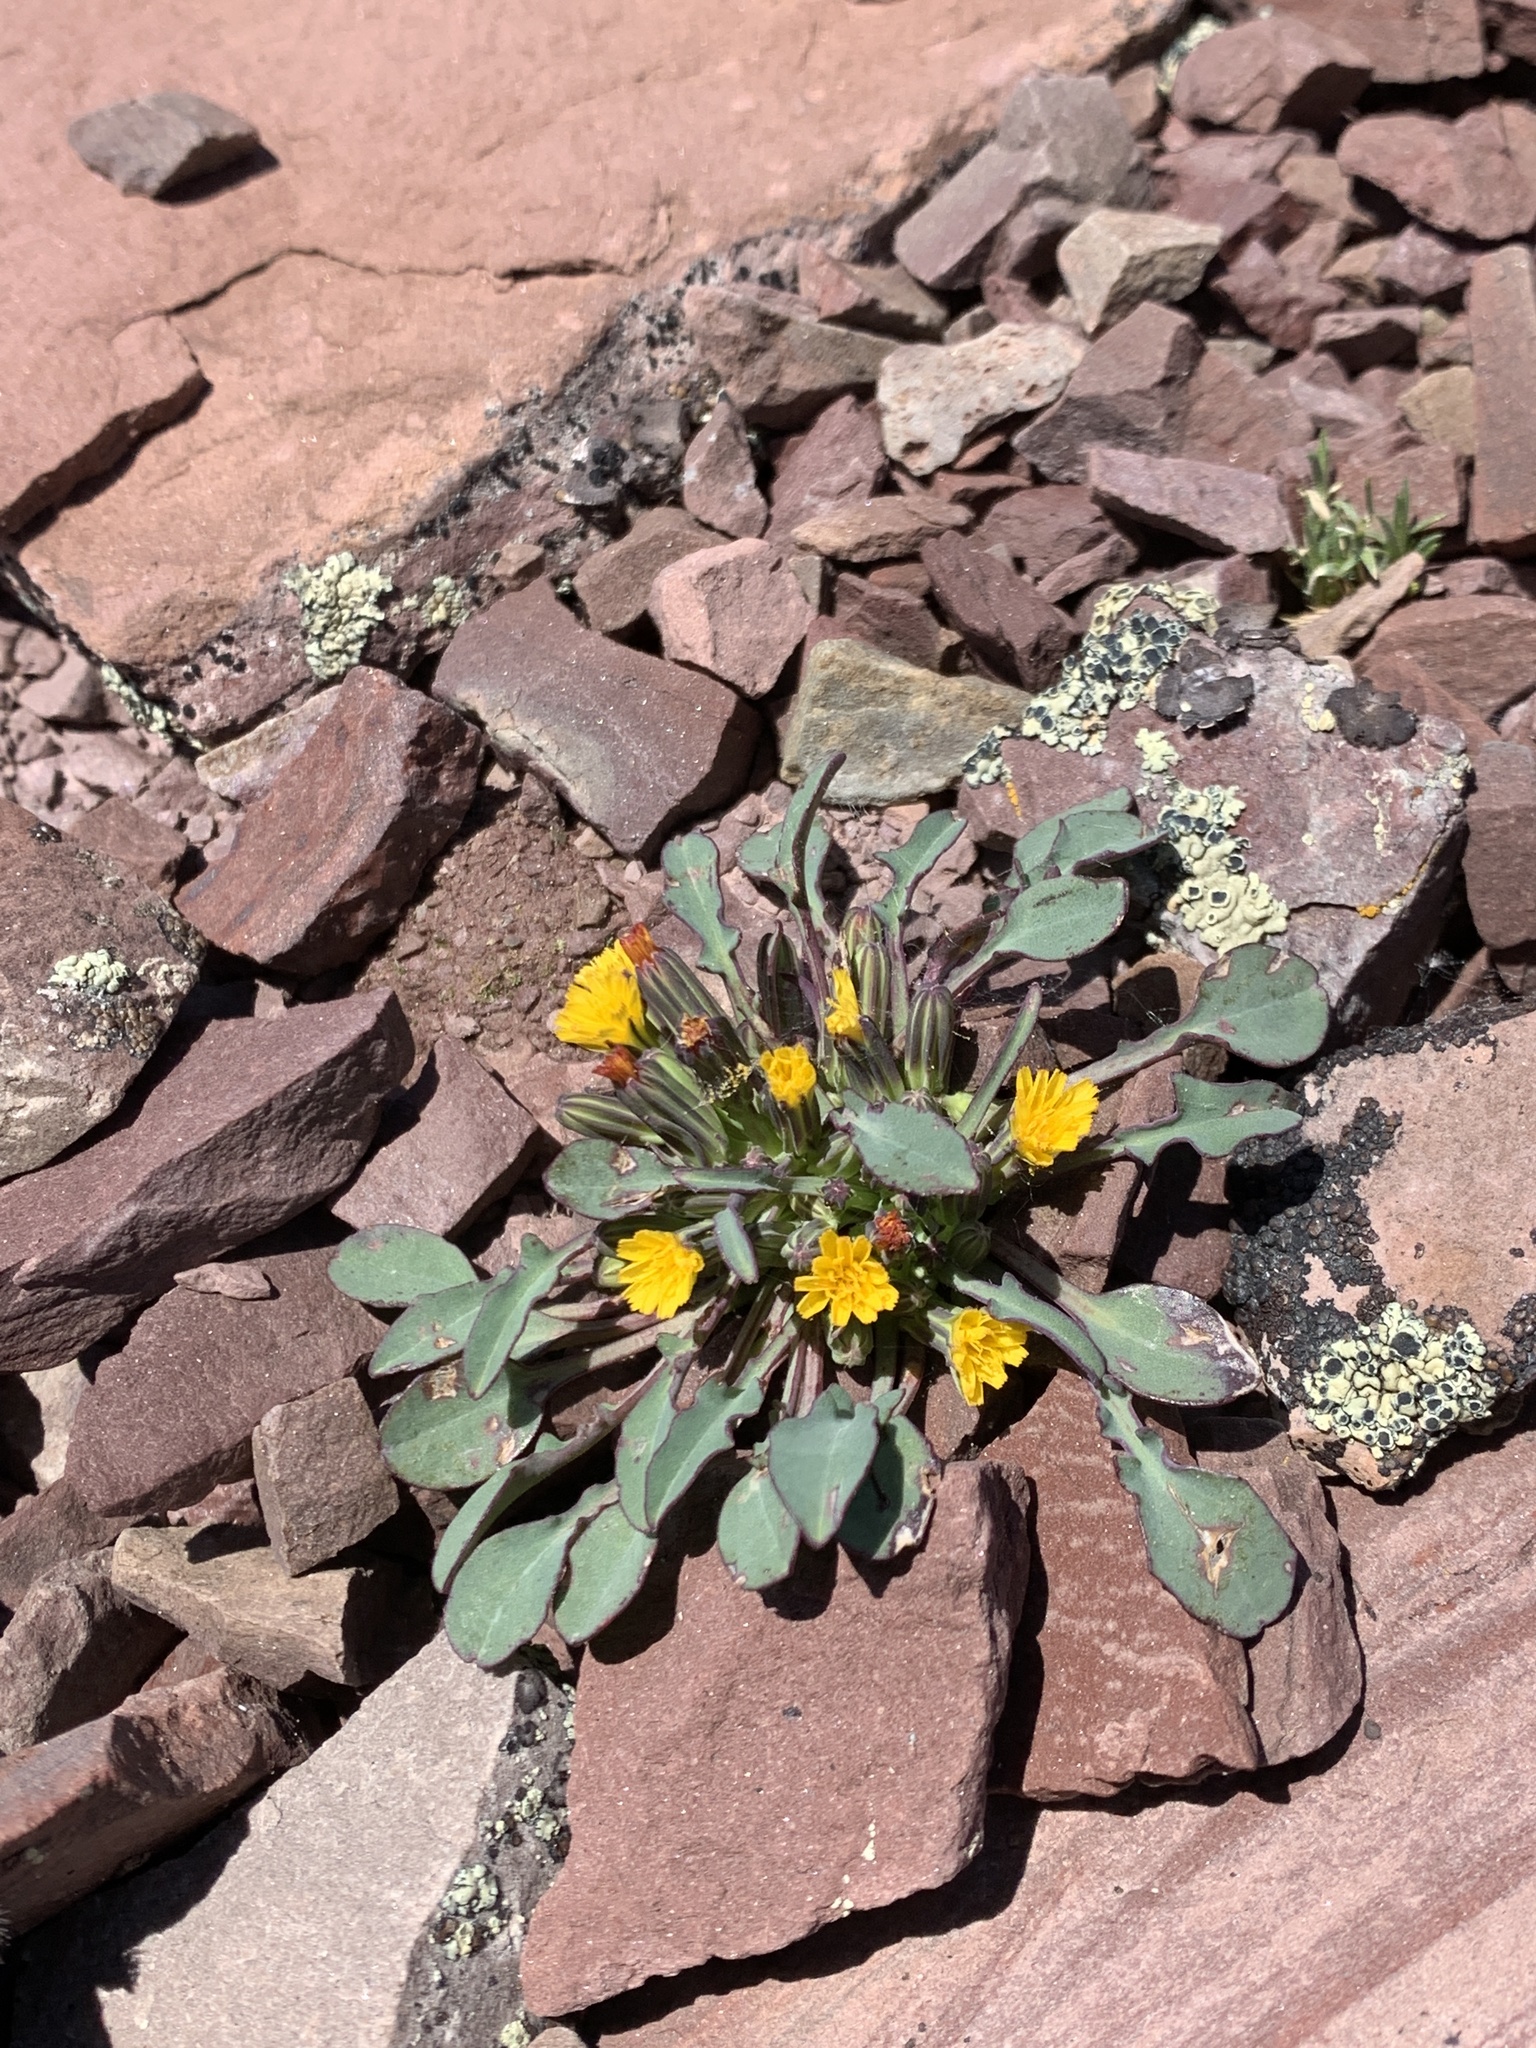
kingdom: Plantae
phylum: Tracheophyta
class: Magnoliopsida
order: Asterales
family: Asteraceae
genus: Askellia
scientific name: Askellia pygmaea
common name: Dwarf alpine hawksbeard
